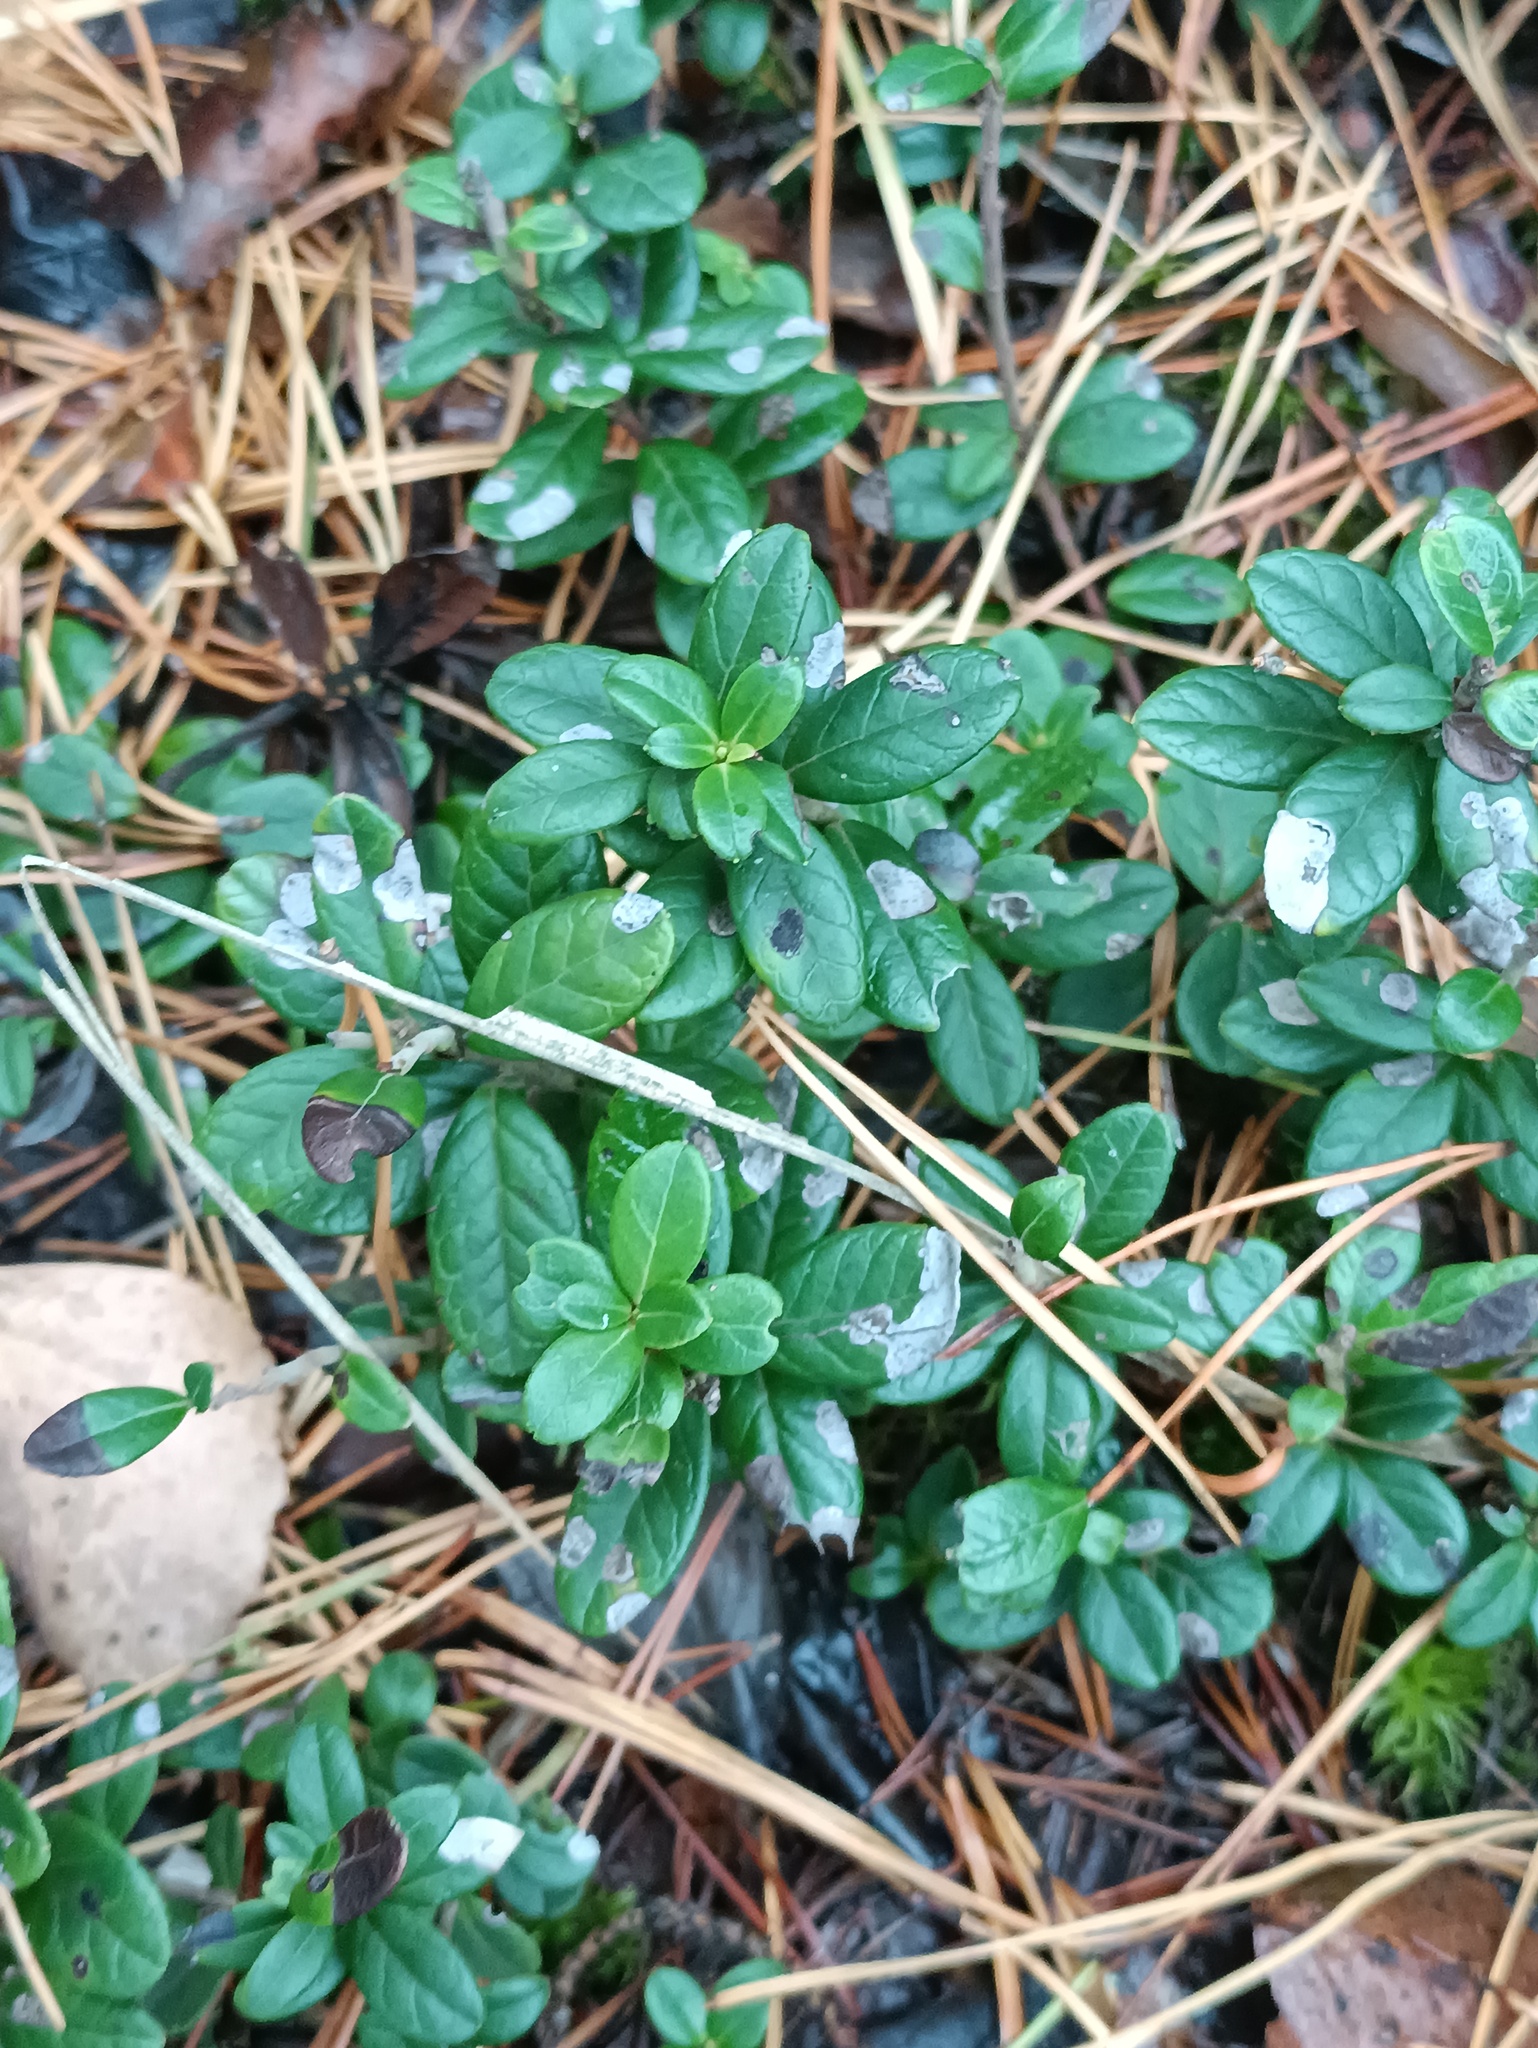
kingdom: Plantae
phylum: Tracheophyta
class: Magnoliopsida
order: Ericales
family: Ericaceae
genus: Vaccinium
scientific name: Vaccinium vitis-idaea
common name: Cowberry
